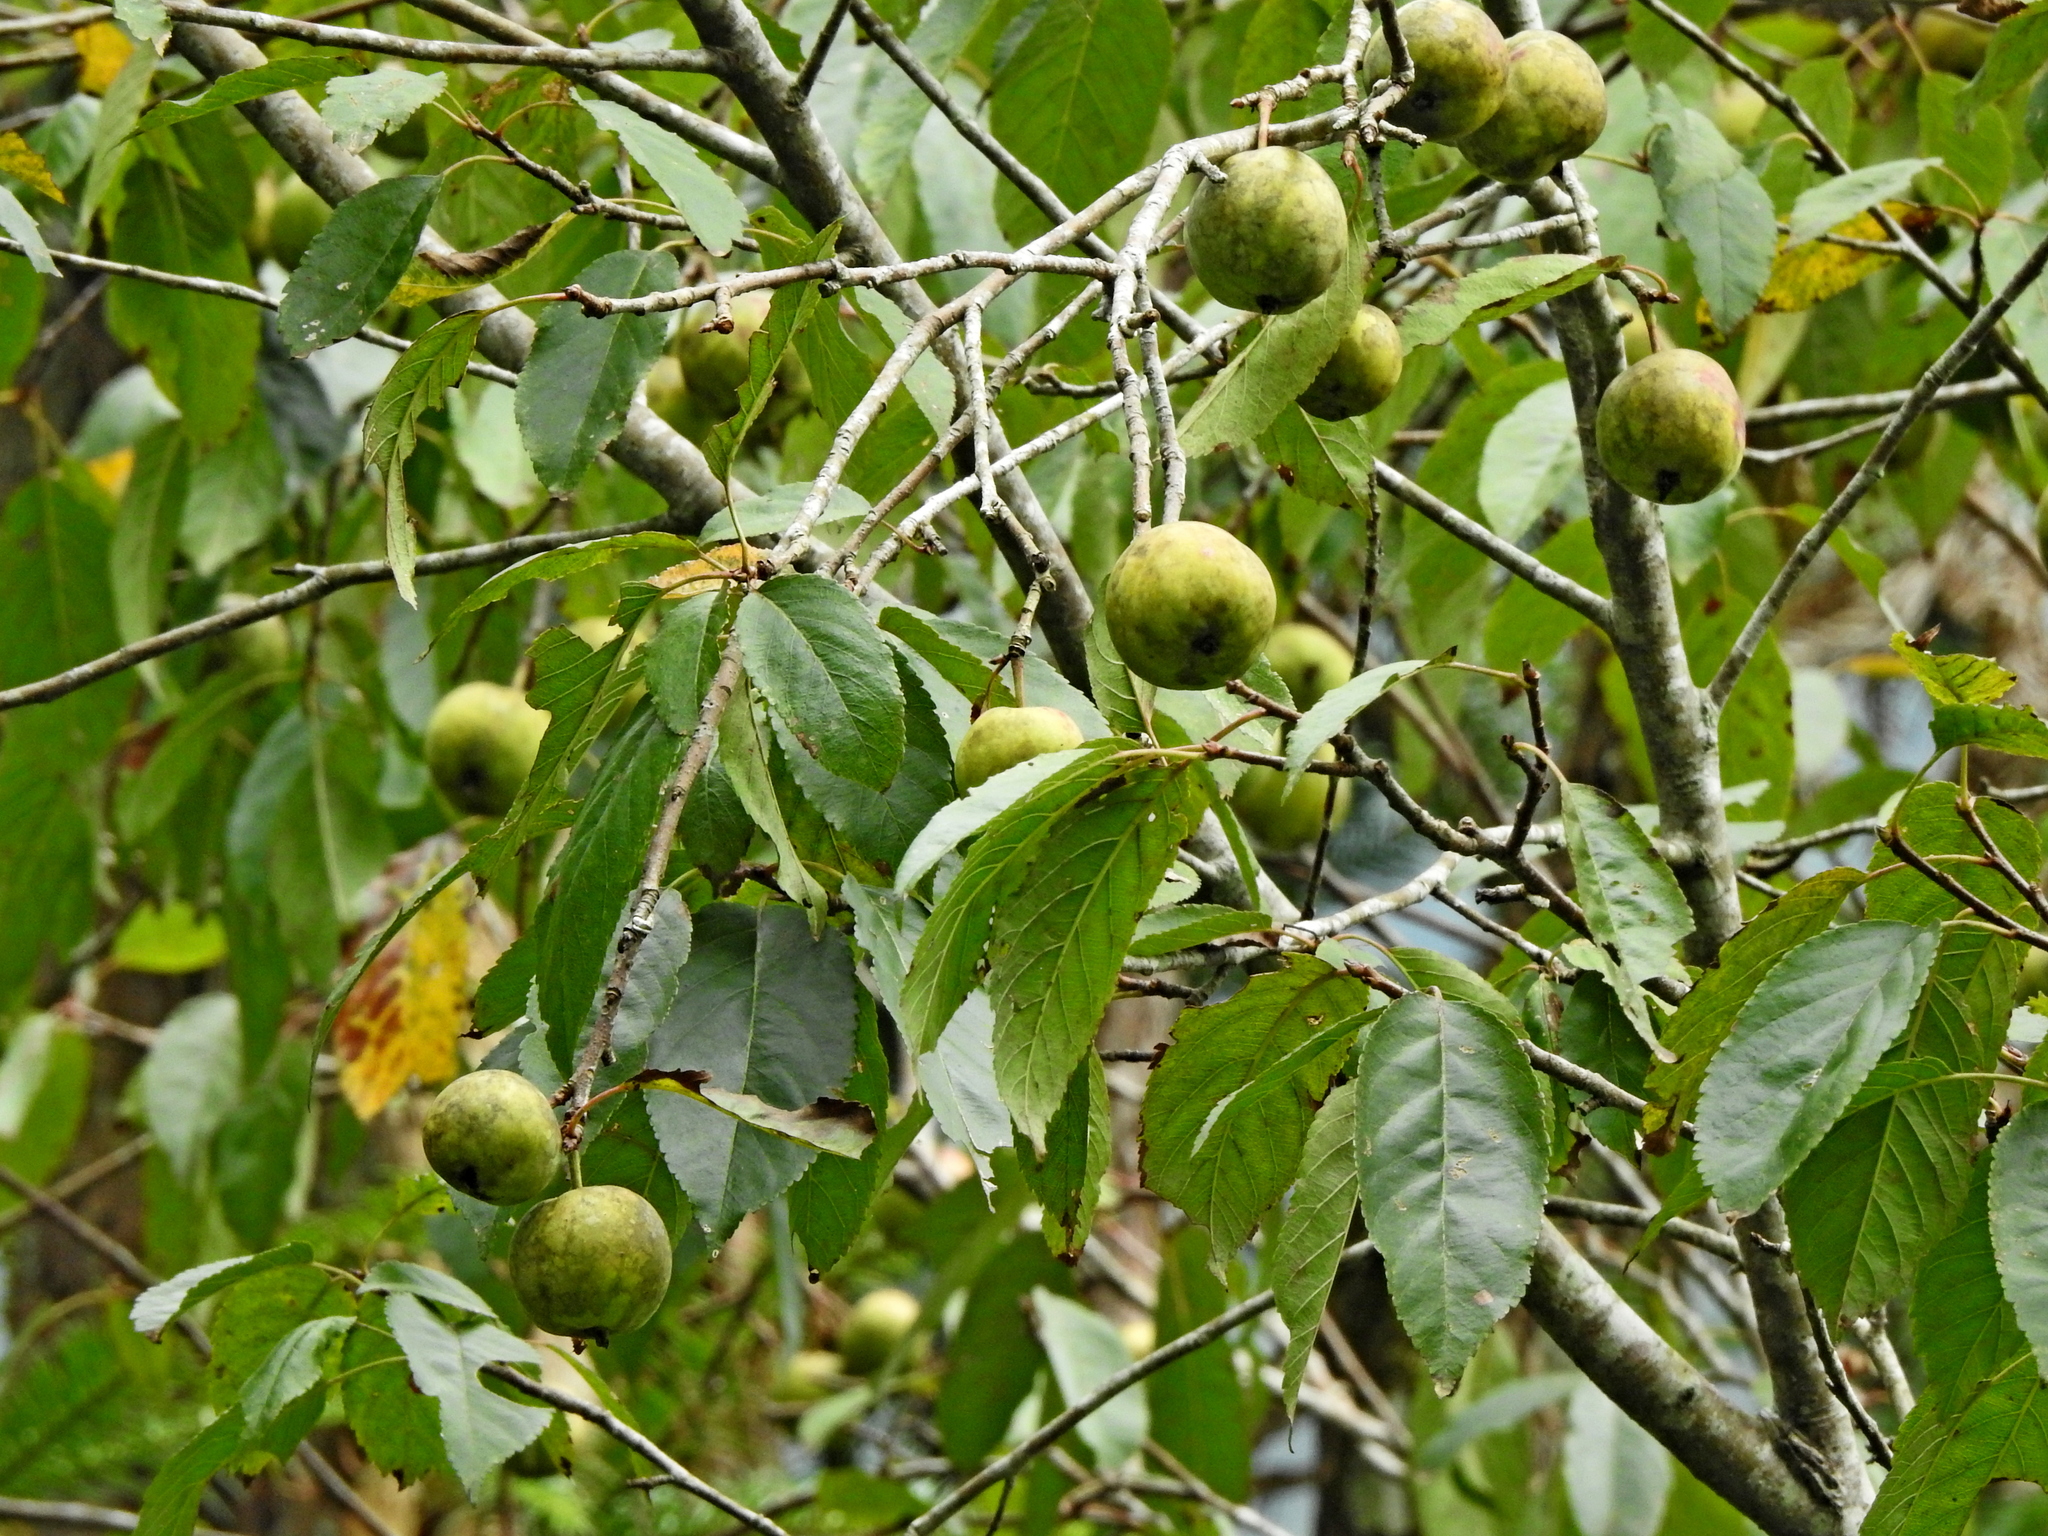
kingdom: Plantae
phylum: Tracheophyta
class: Magnoliopsida
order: Rosales
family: Rosaceae
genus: Malus
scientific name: Malus doumeri
